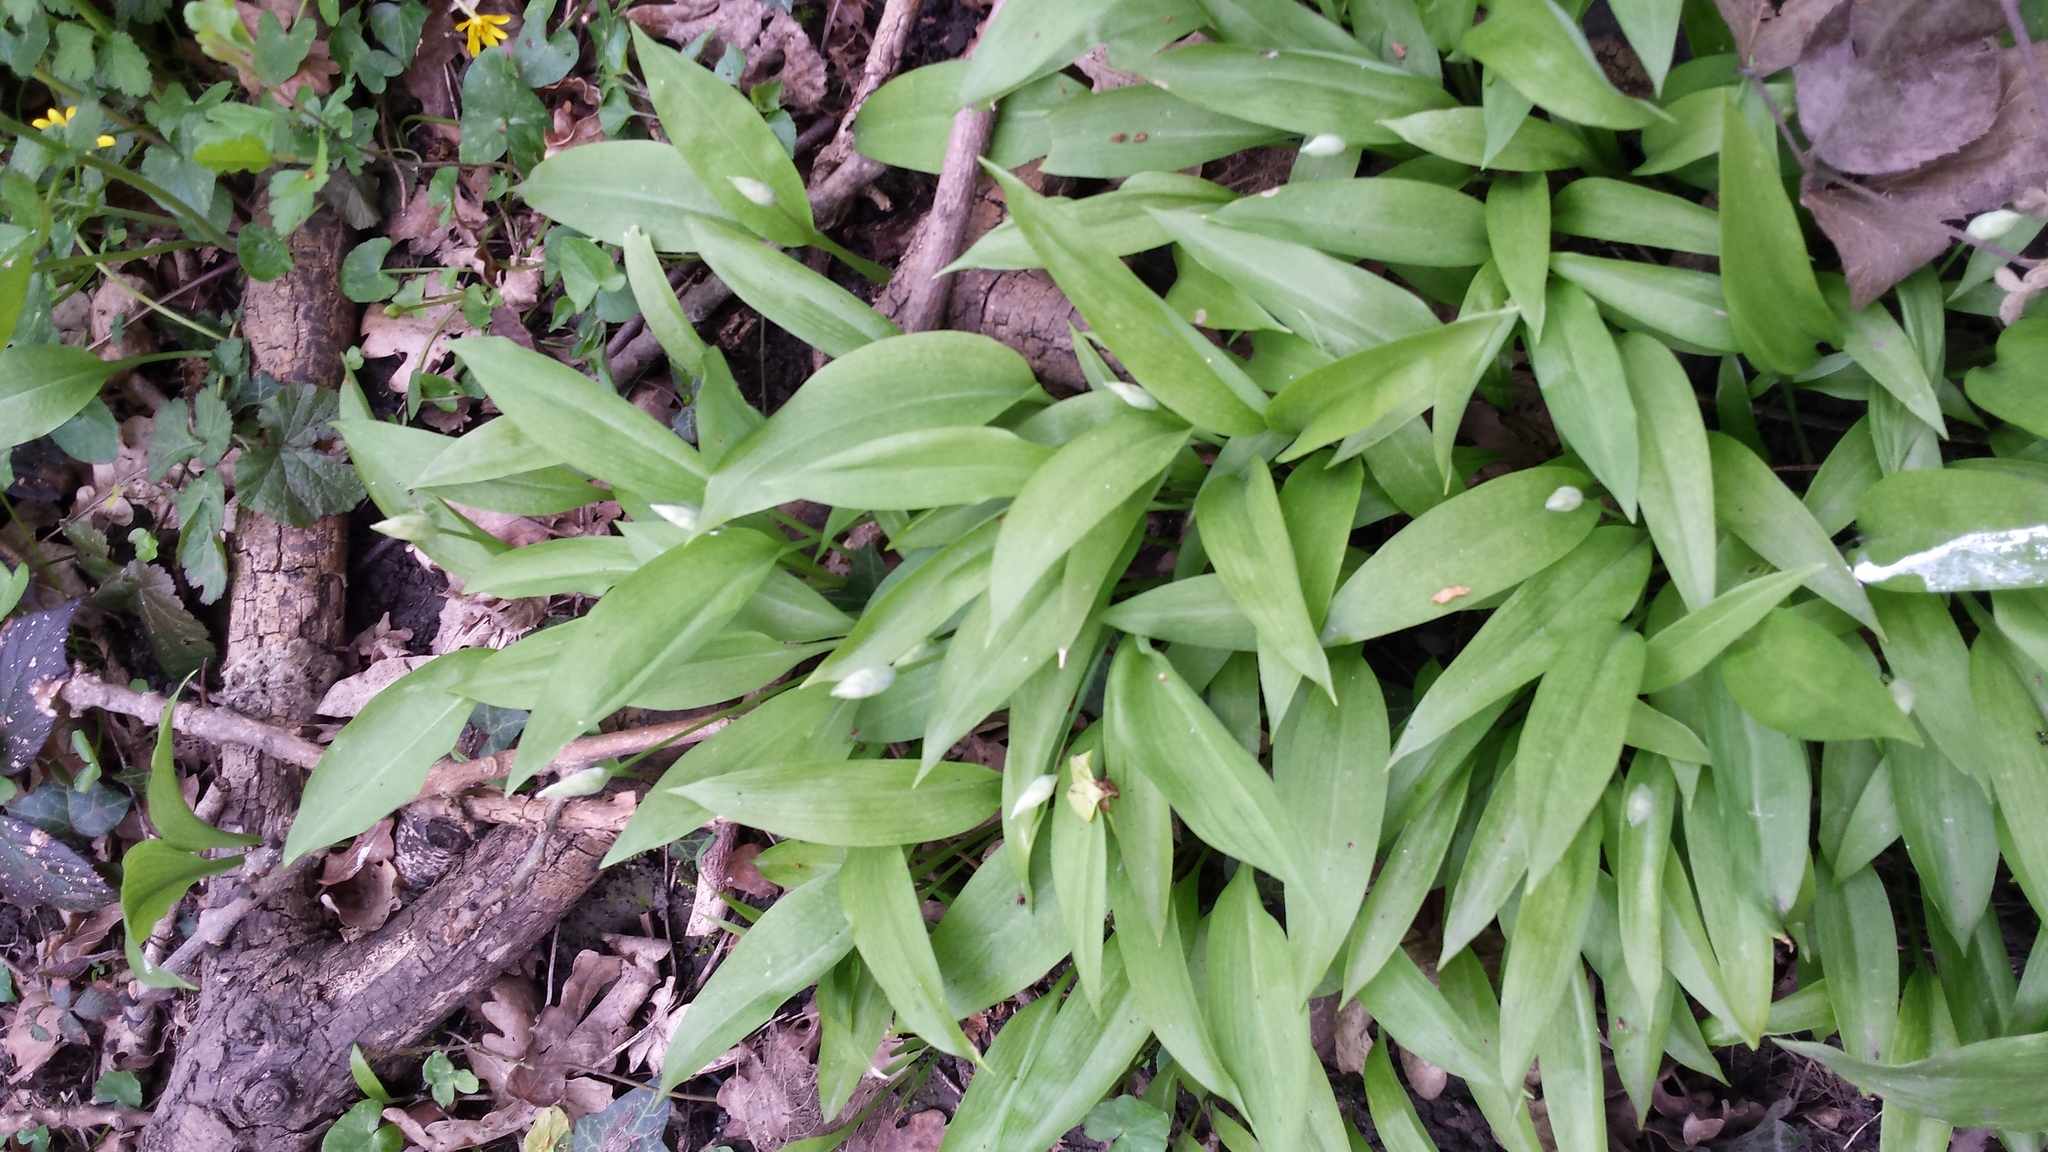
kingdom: Plantae
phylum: Tracheophyta
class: Liliopsida
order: Asparagales
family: Amaryllidaceae
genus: Allium
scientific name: Allium ursinum
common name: Ramsons
